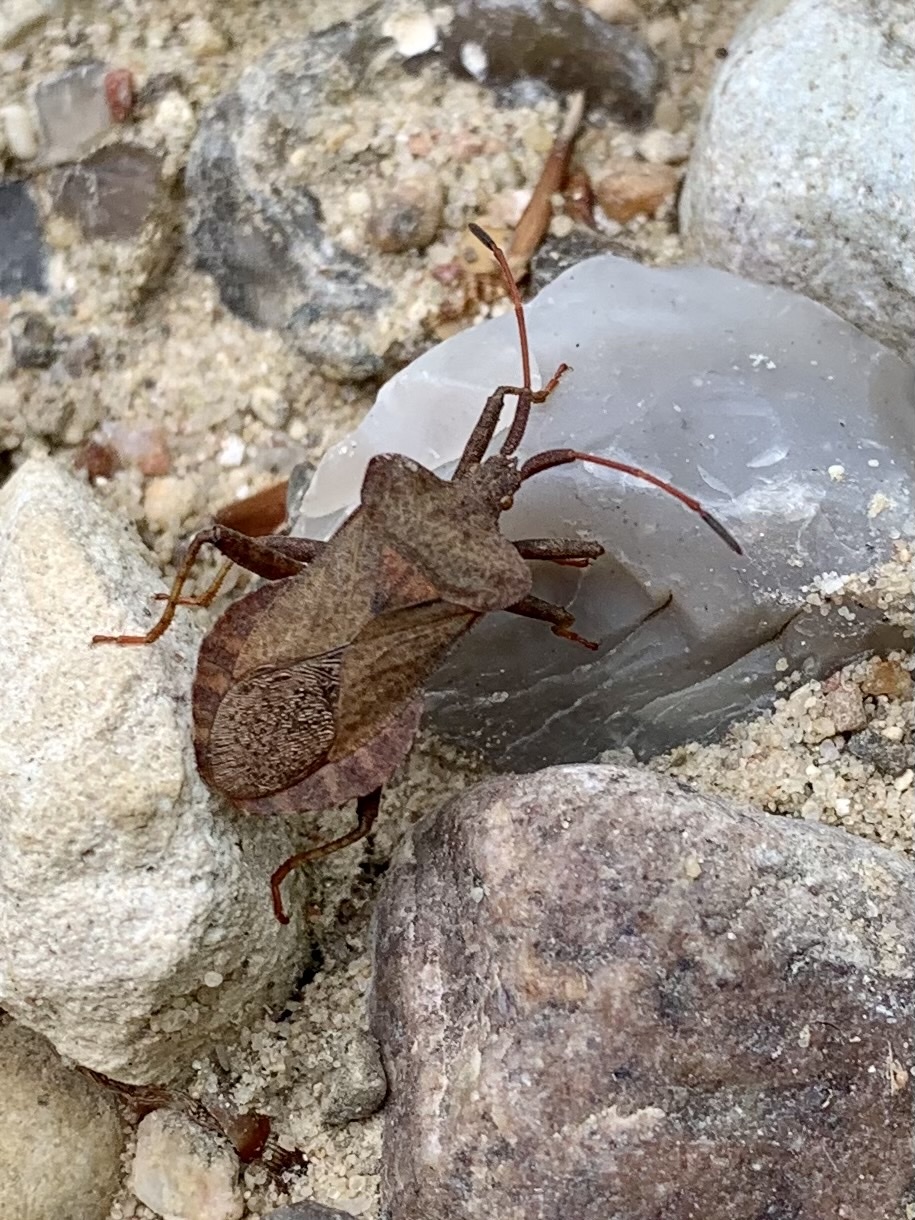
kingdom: Animalia
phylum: Arthropoda
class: Insecta
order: Hemiptera
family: Coreidae
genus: Coreus
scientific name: Coreus marginatus
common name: Dock bug
